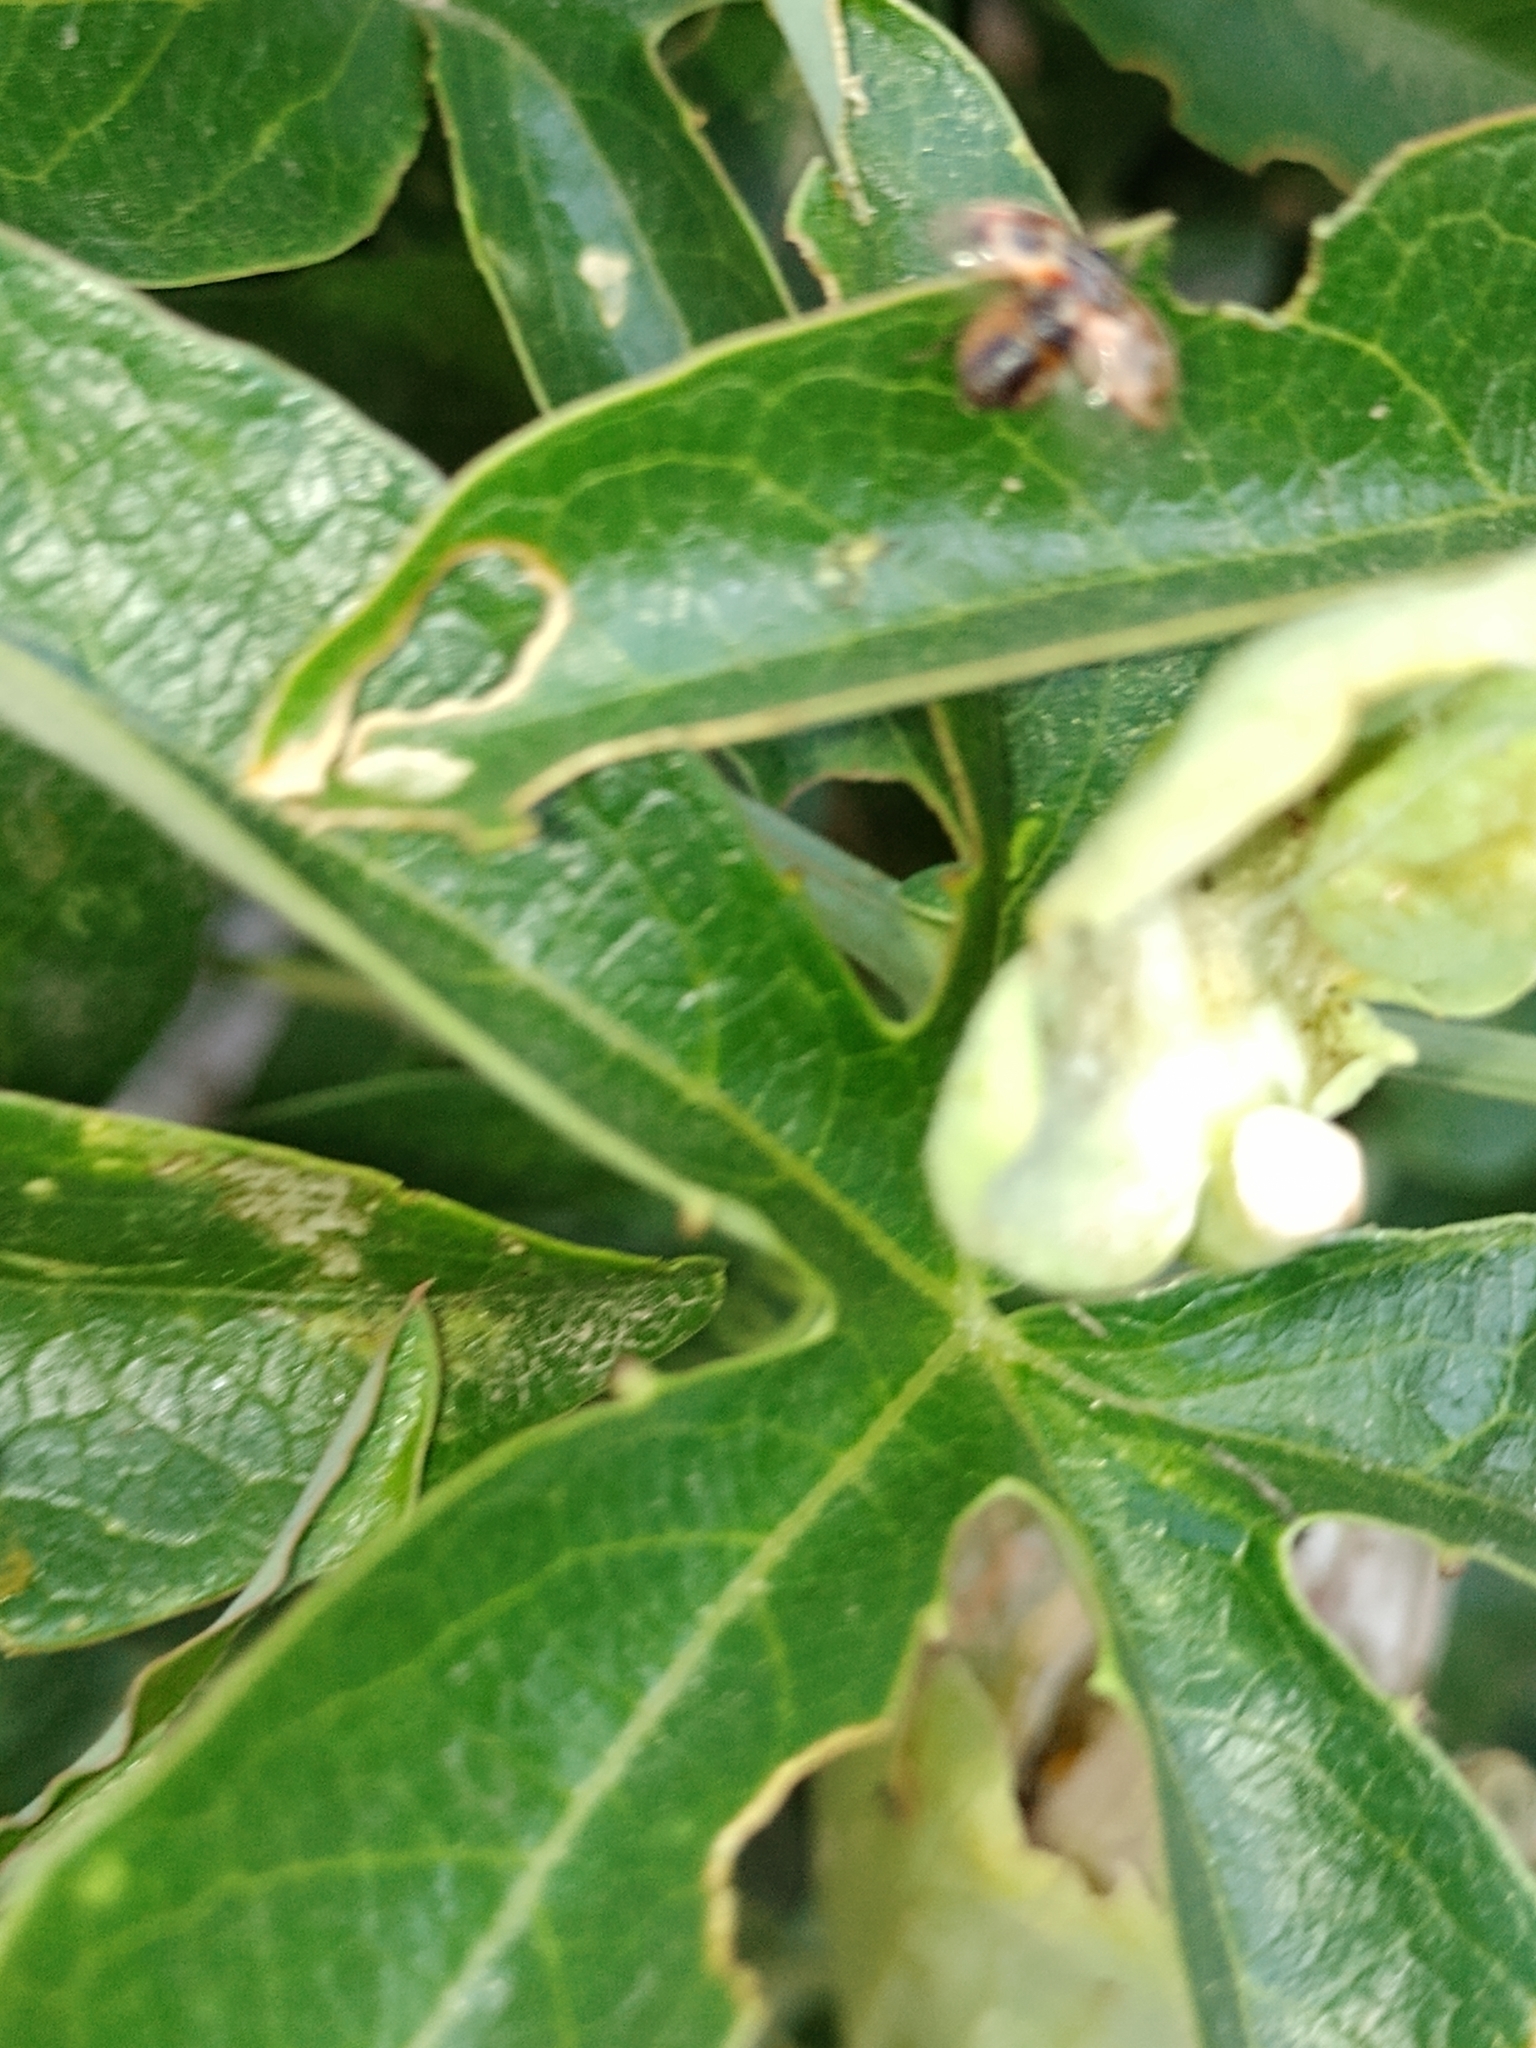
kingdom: Animalia
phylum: Arthropoda
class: Insecta
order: Coleoptera
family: Coccinellidae
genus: Cycloneda
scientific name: Cycloneda ancoralis
